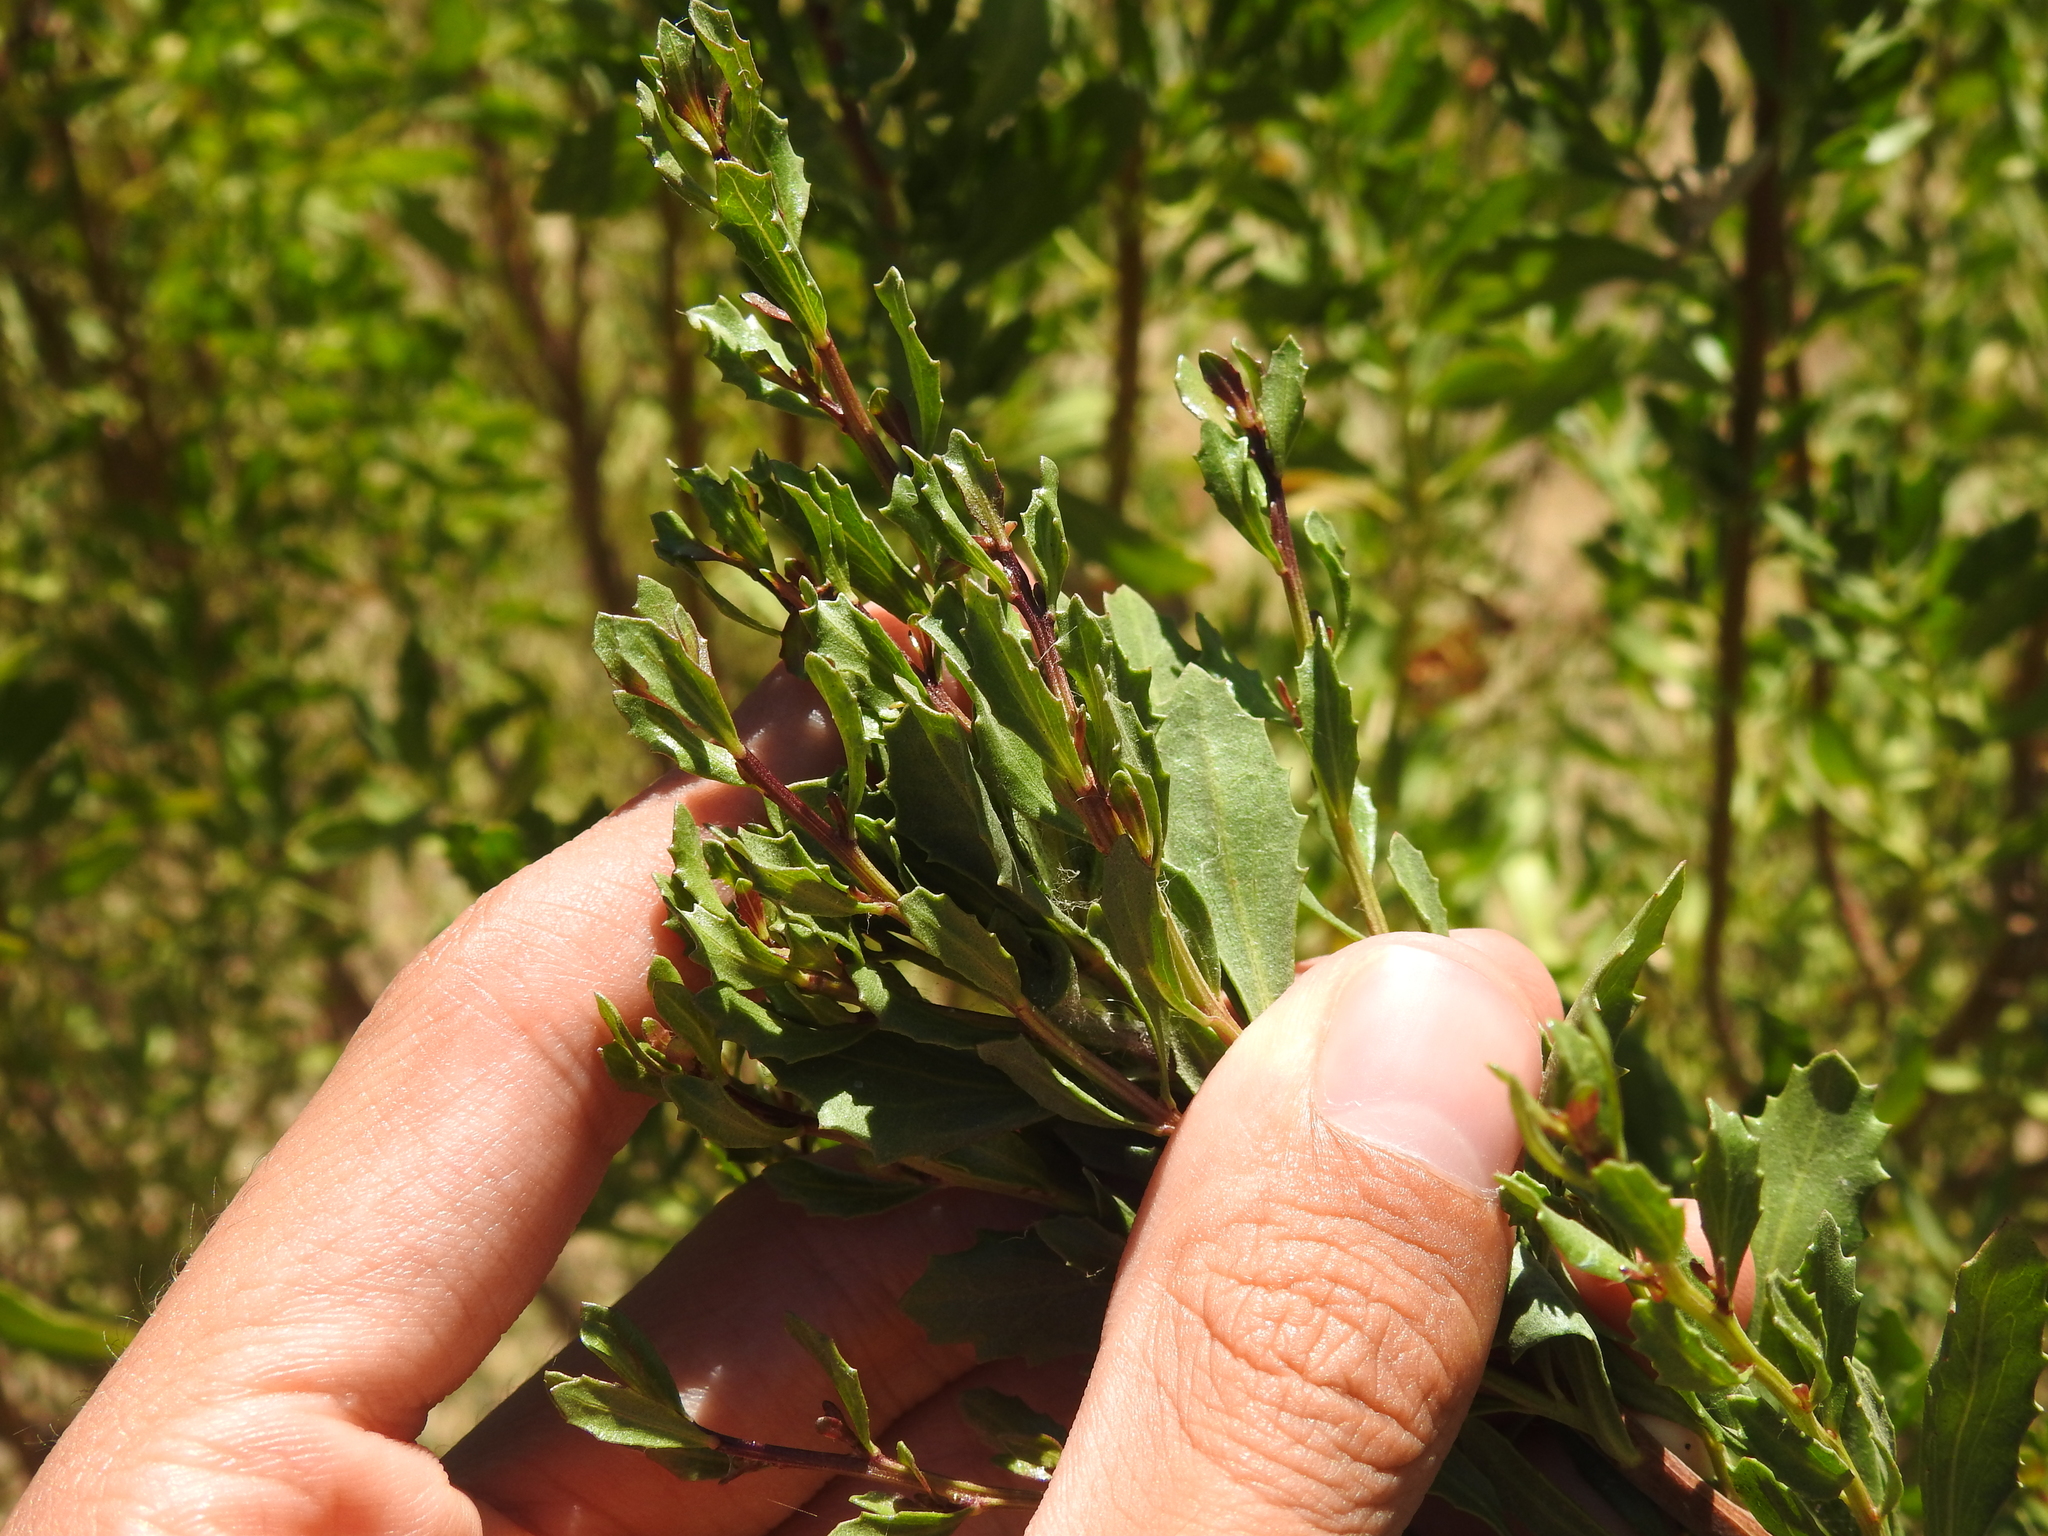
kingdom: Plantae
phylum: Tracheophyta
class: Magnoliopsida
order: Asterales
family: Asteraceae
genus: Baccharis
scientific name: Baccharis pilularis
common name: Coyotebrush
